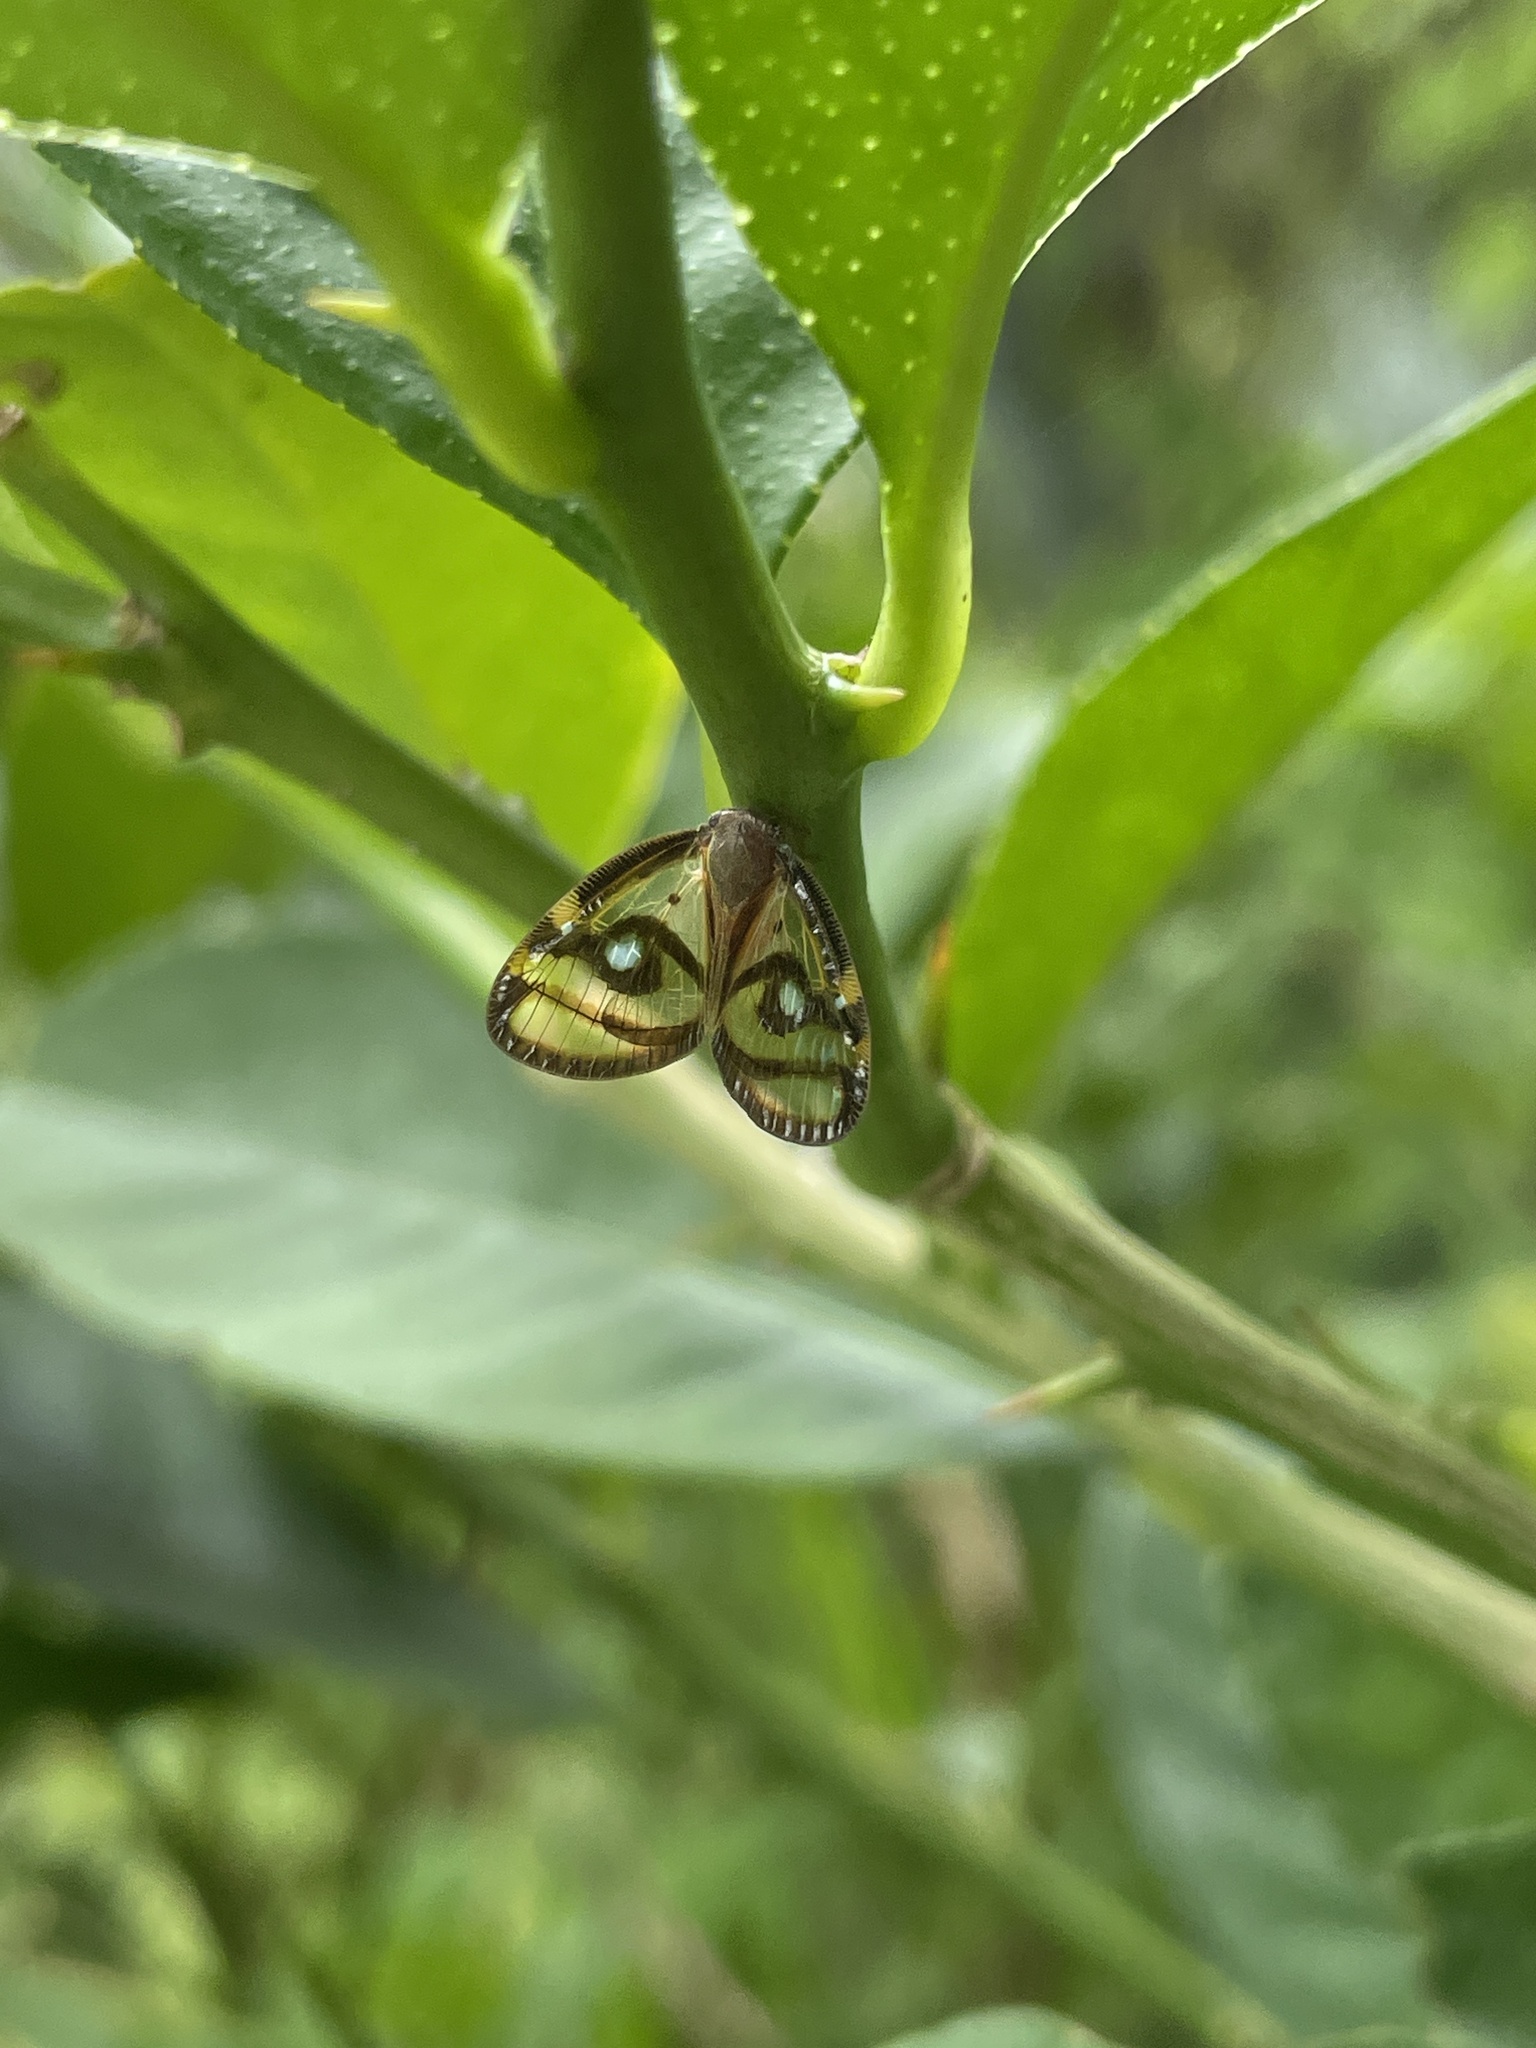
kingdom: Animalia
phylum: Arthropoda
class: Insecta
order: Hemiptera
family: Ricaniidae
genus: Euricania
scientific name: Euricania ocella
